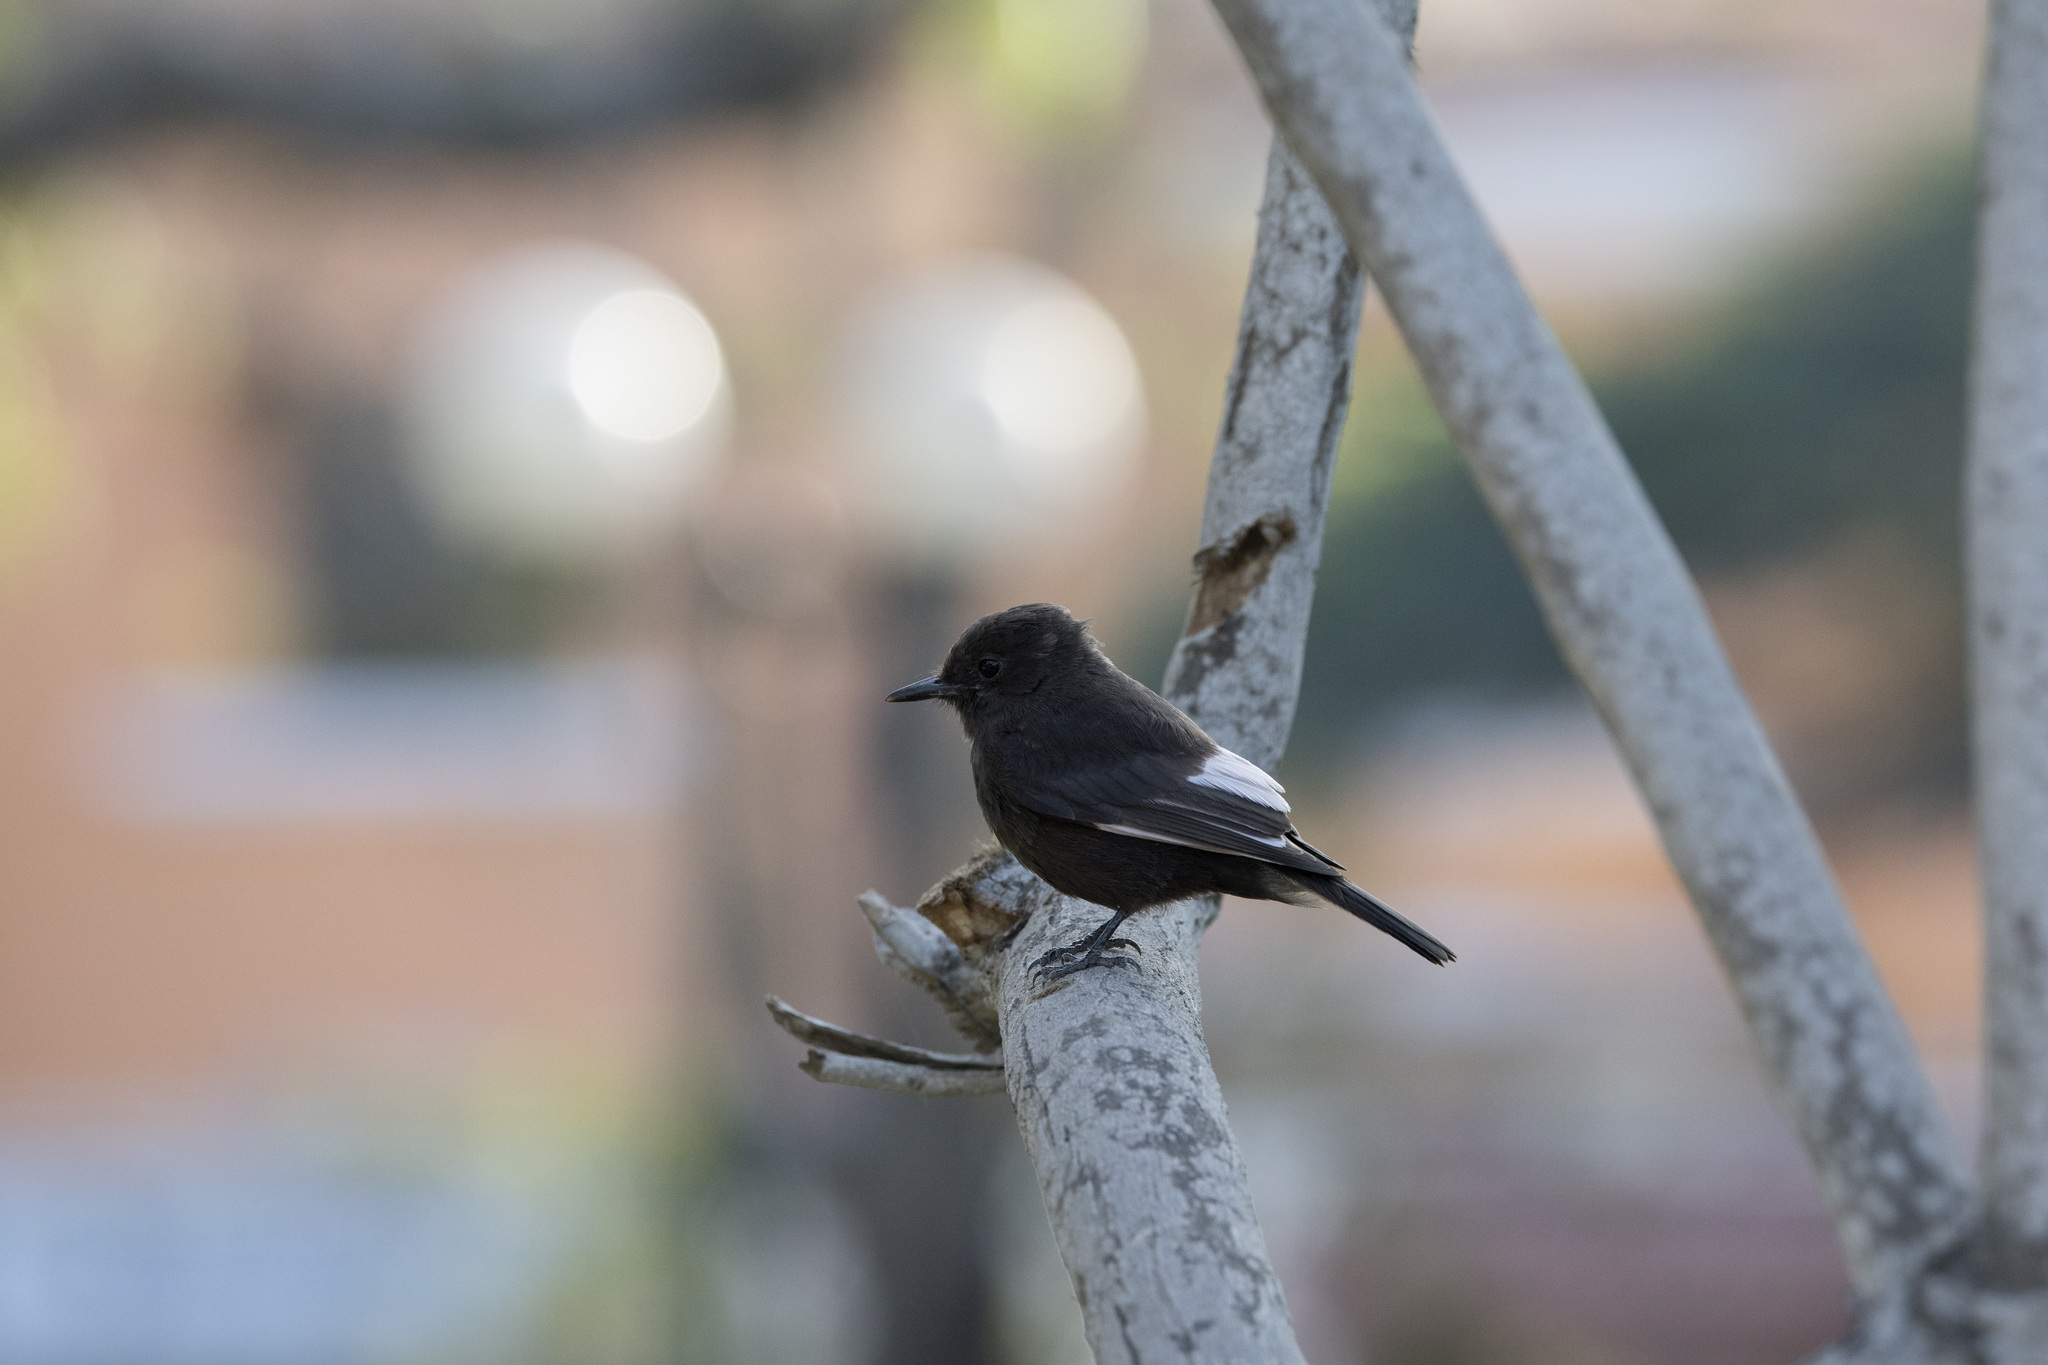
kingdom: Animalia
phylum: Chordata
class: Aves
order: Passeriformes
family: Tyrannidae
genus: Pyrocephalus
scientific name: Pyrocephalus rubinus
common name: Vermilion flycatcher
